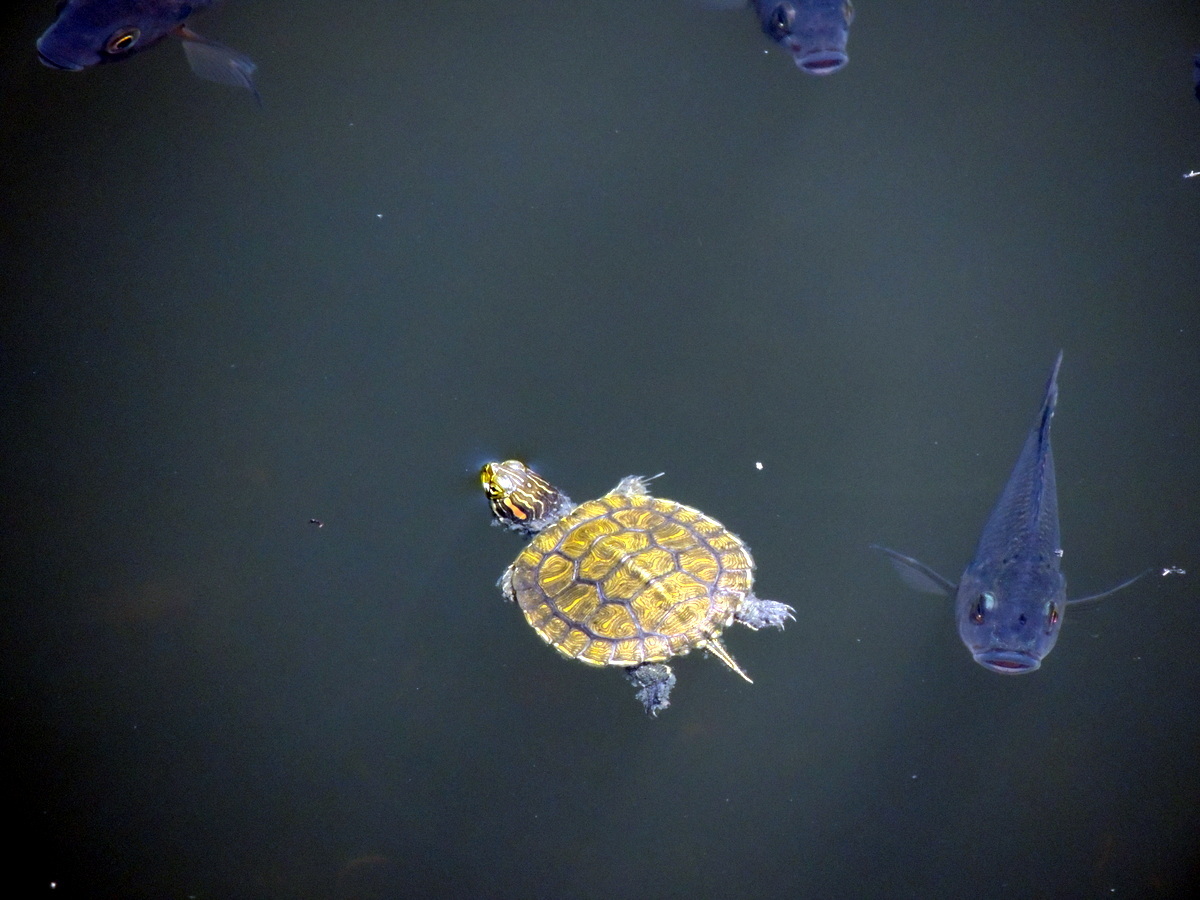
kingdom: Animalia
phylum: Chordata
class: Testudines
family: Emydidae
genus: Trachemys
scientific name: Trachemys scripta
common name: Slider
